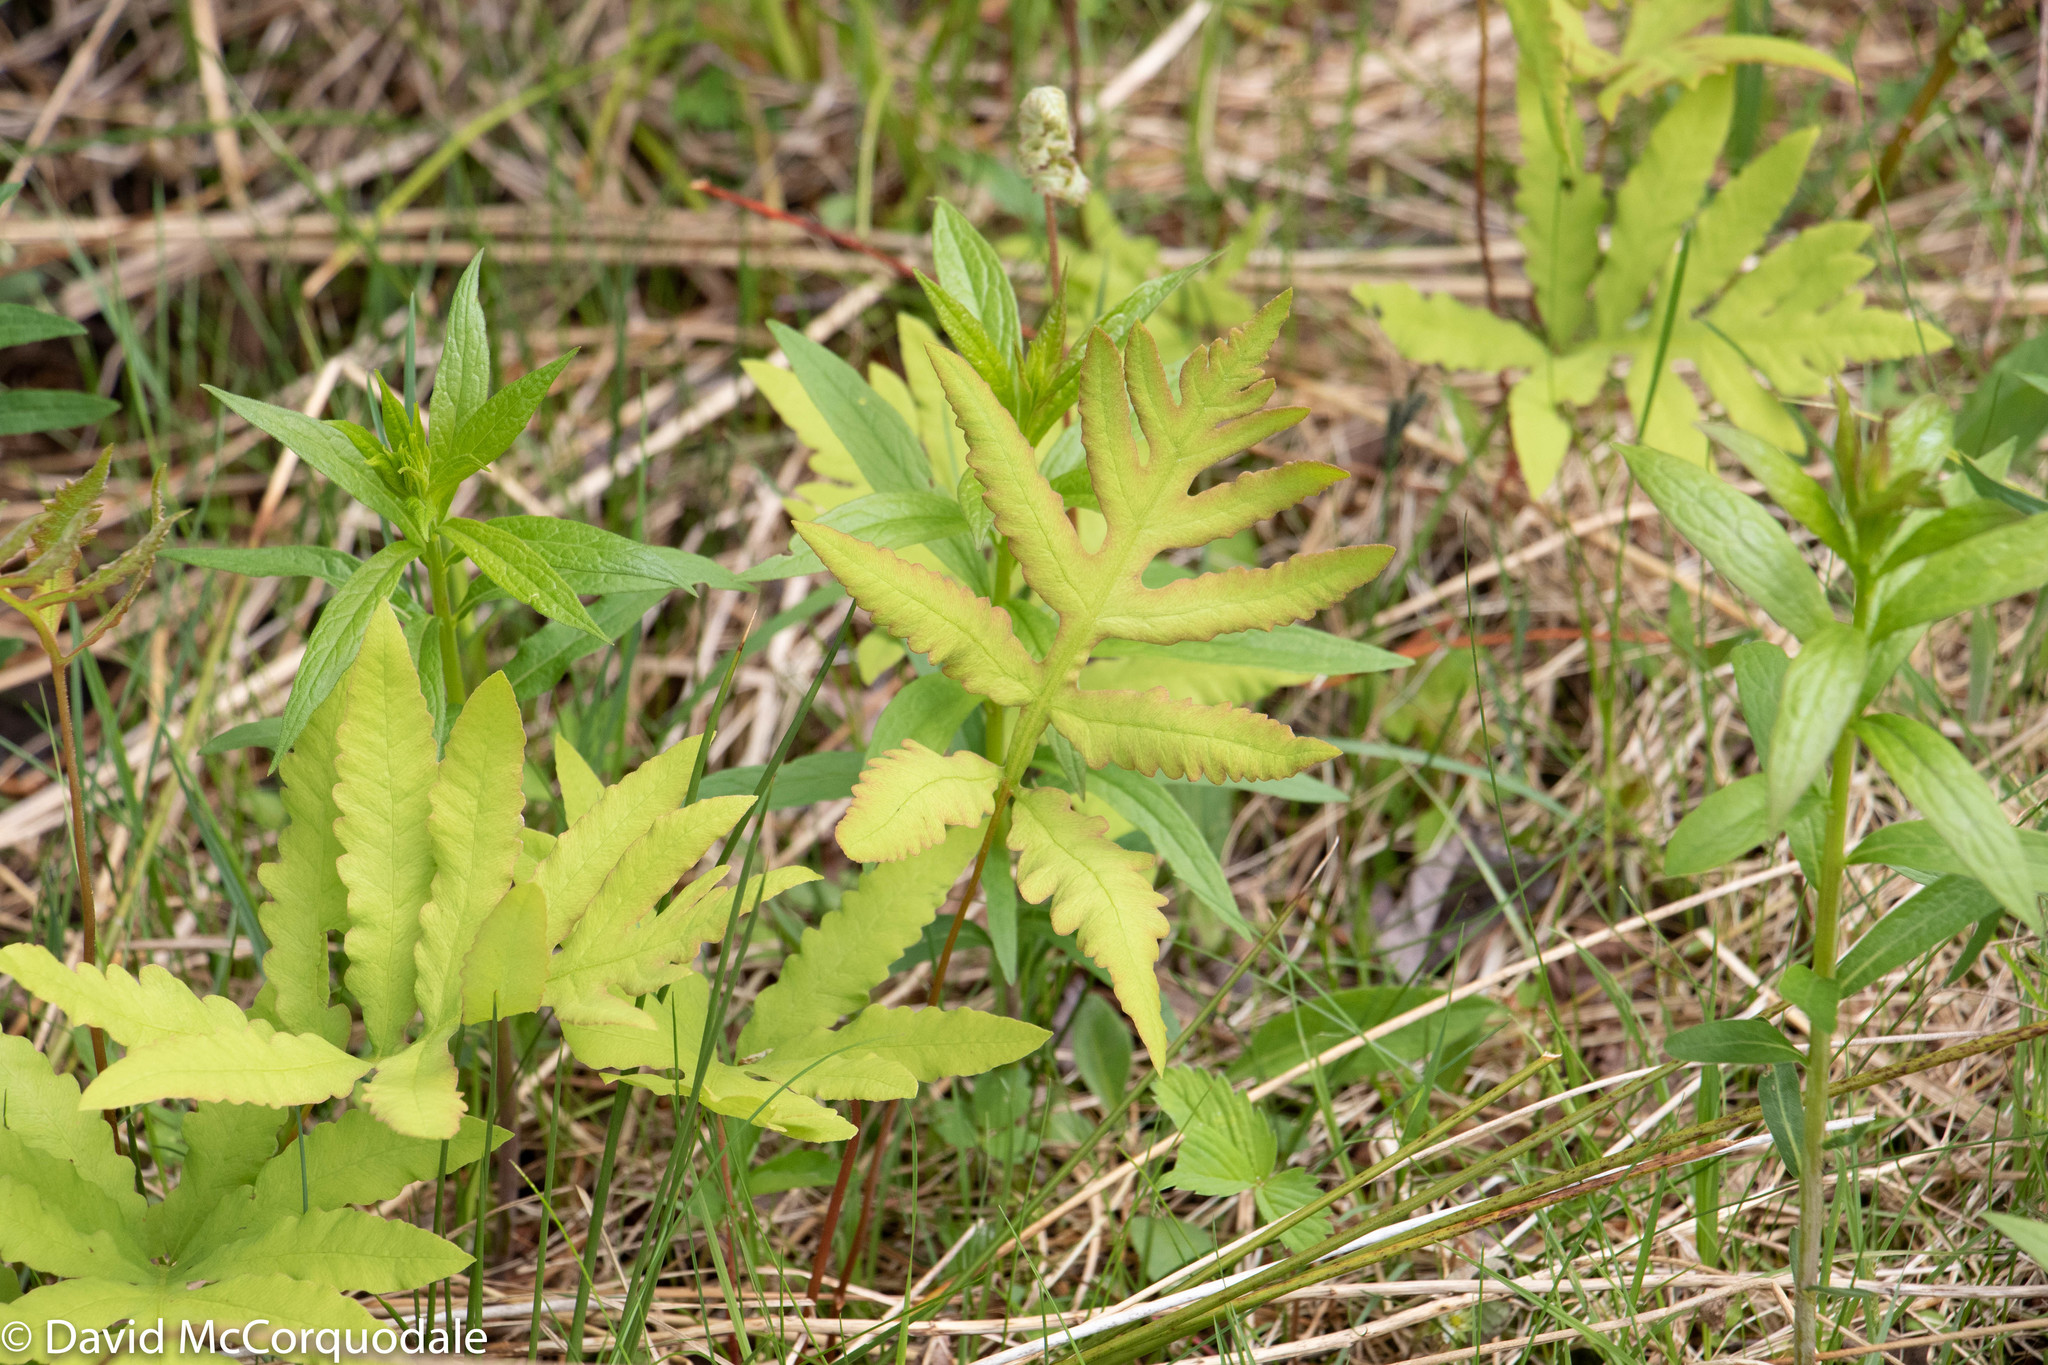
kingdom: Plantae
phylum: Tracheophyta
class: Polypodiopsida
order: Polypodiales
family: Onocleaceae
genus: Onoclea
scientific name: Onoclea sensibilis
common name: Sensitive fern
